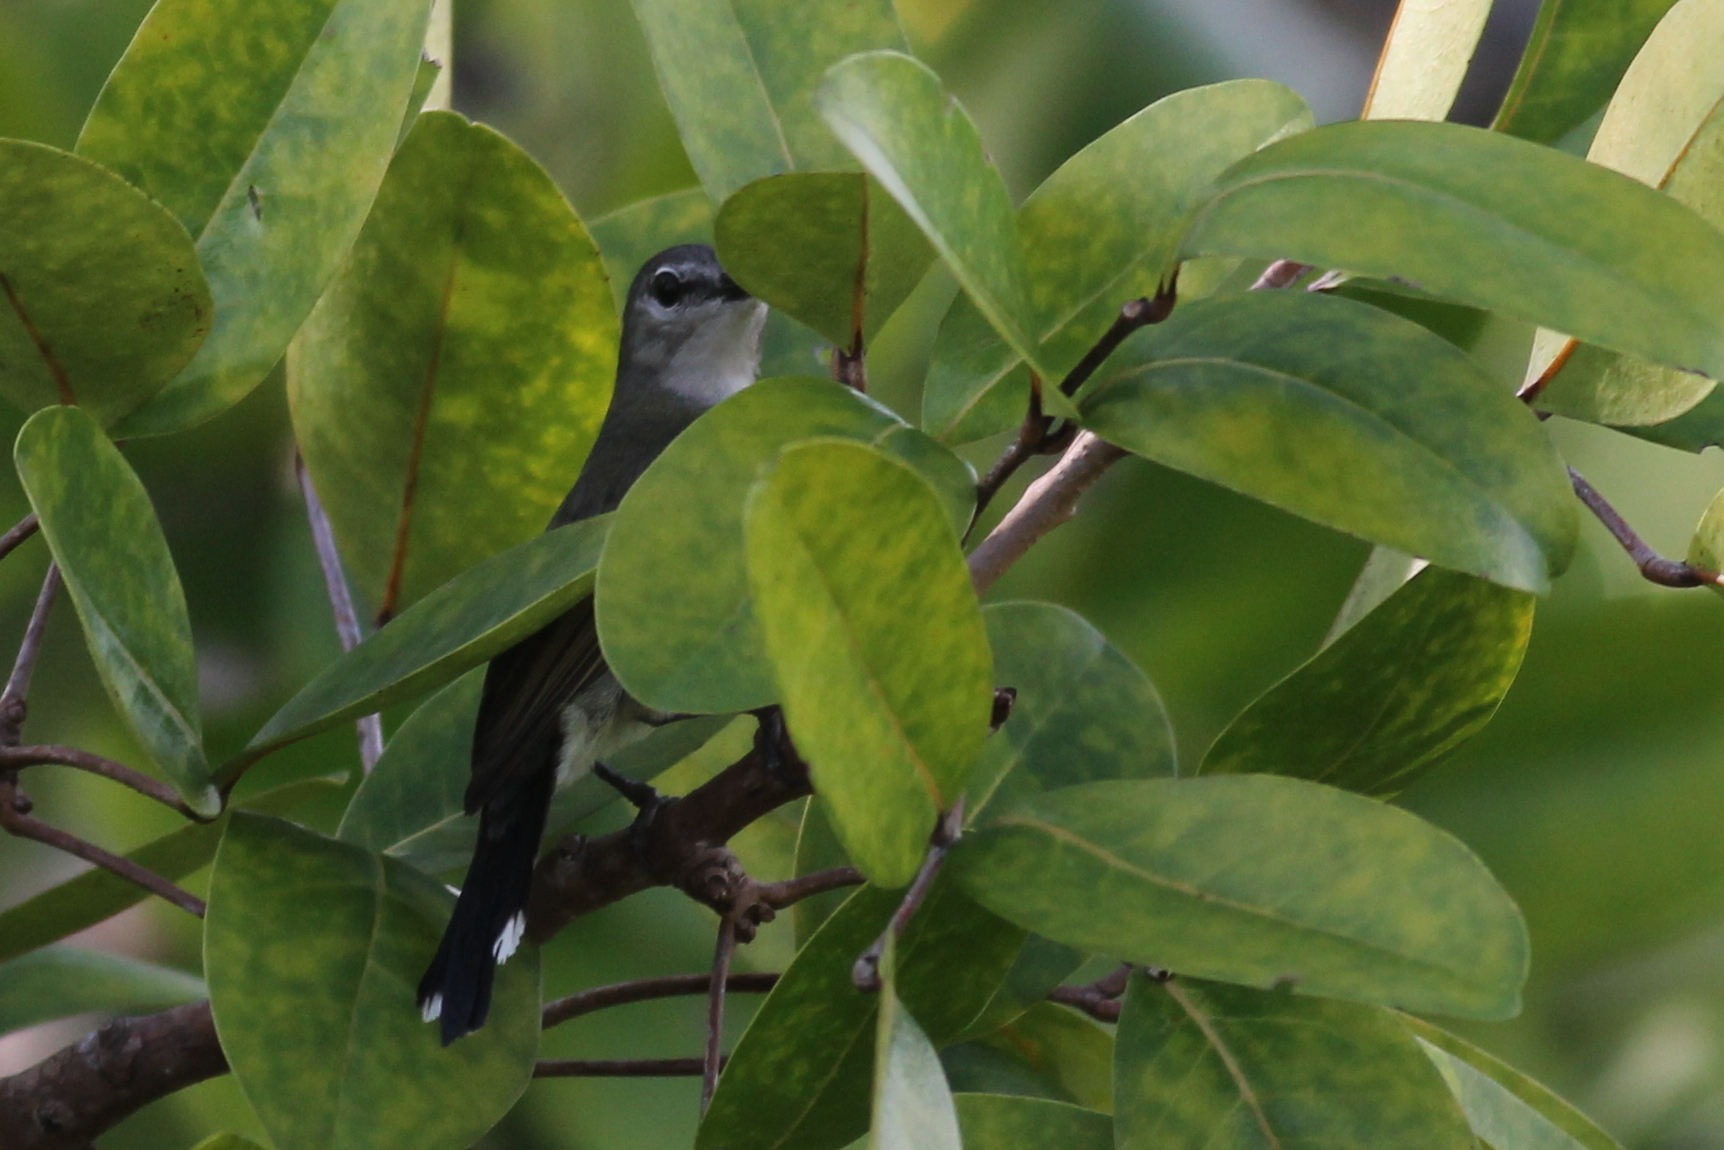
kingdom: Animalia
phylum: Chordata
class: Aves
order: Passeriformes
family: Nectariniidae
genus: Leptocoma
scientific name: Leptocoma calcostetha
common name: Copper-throated sunbird
